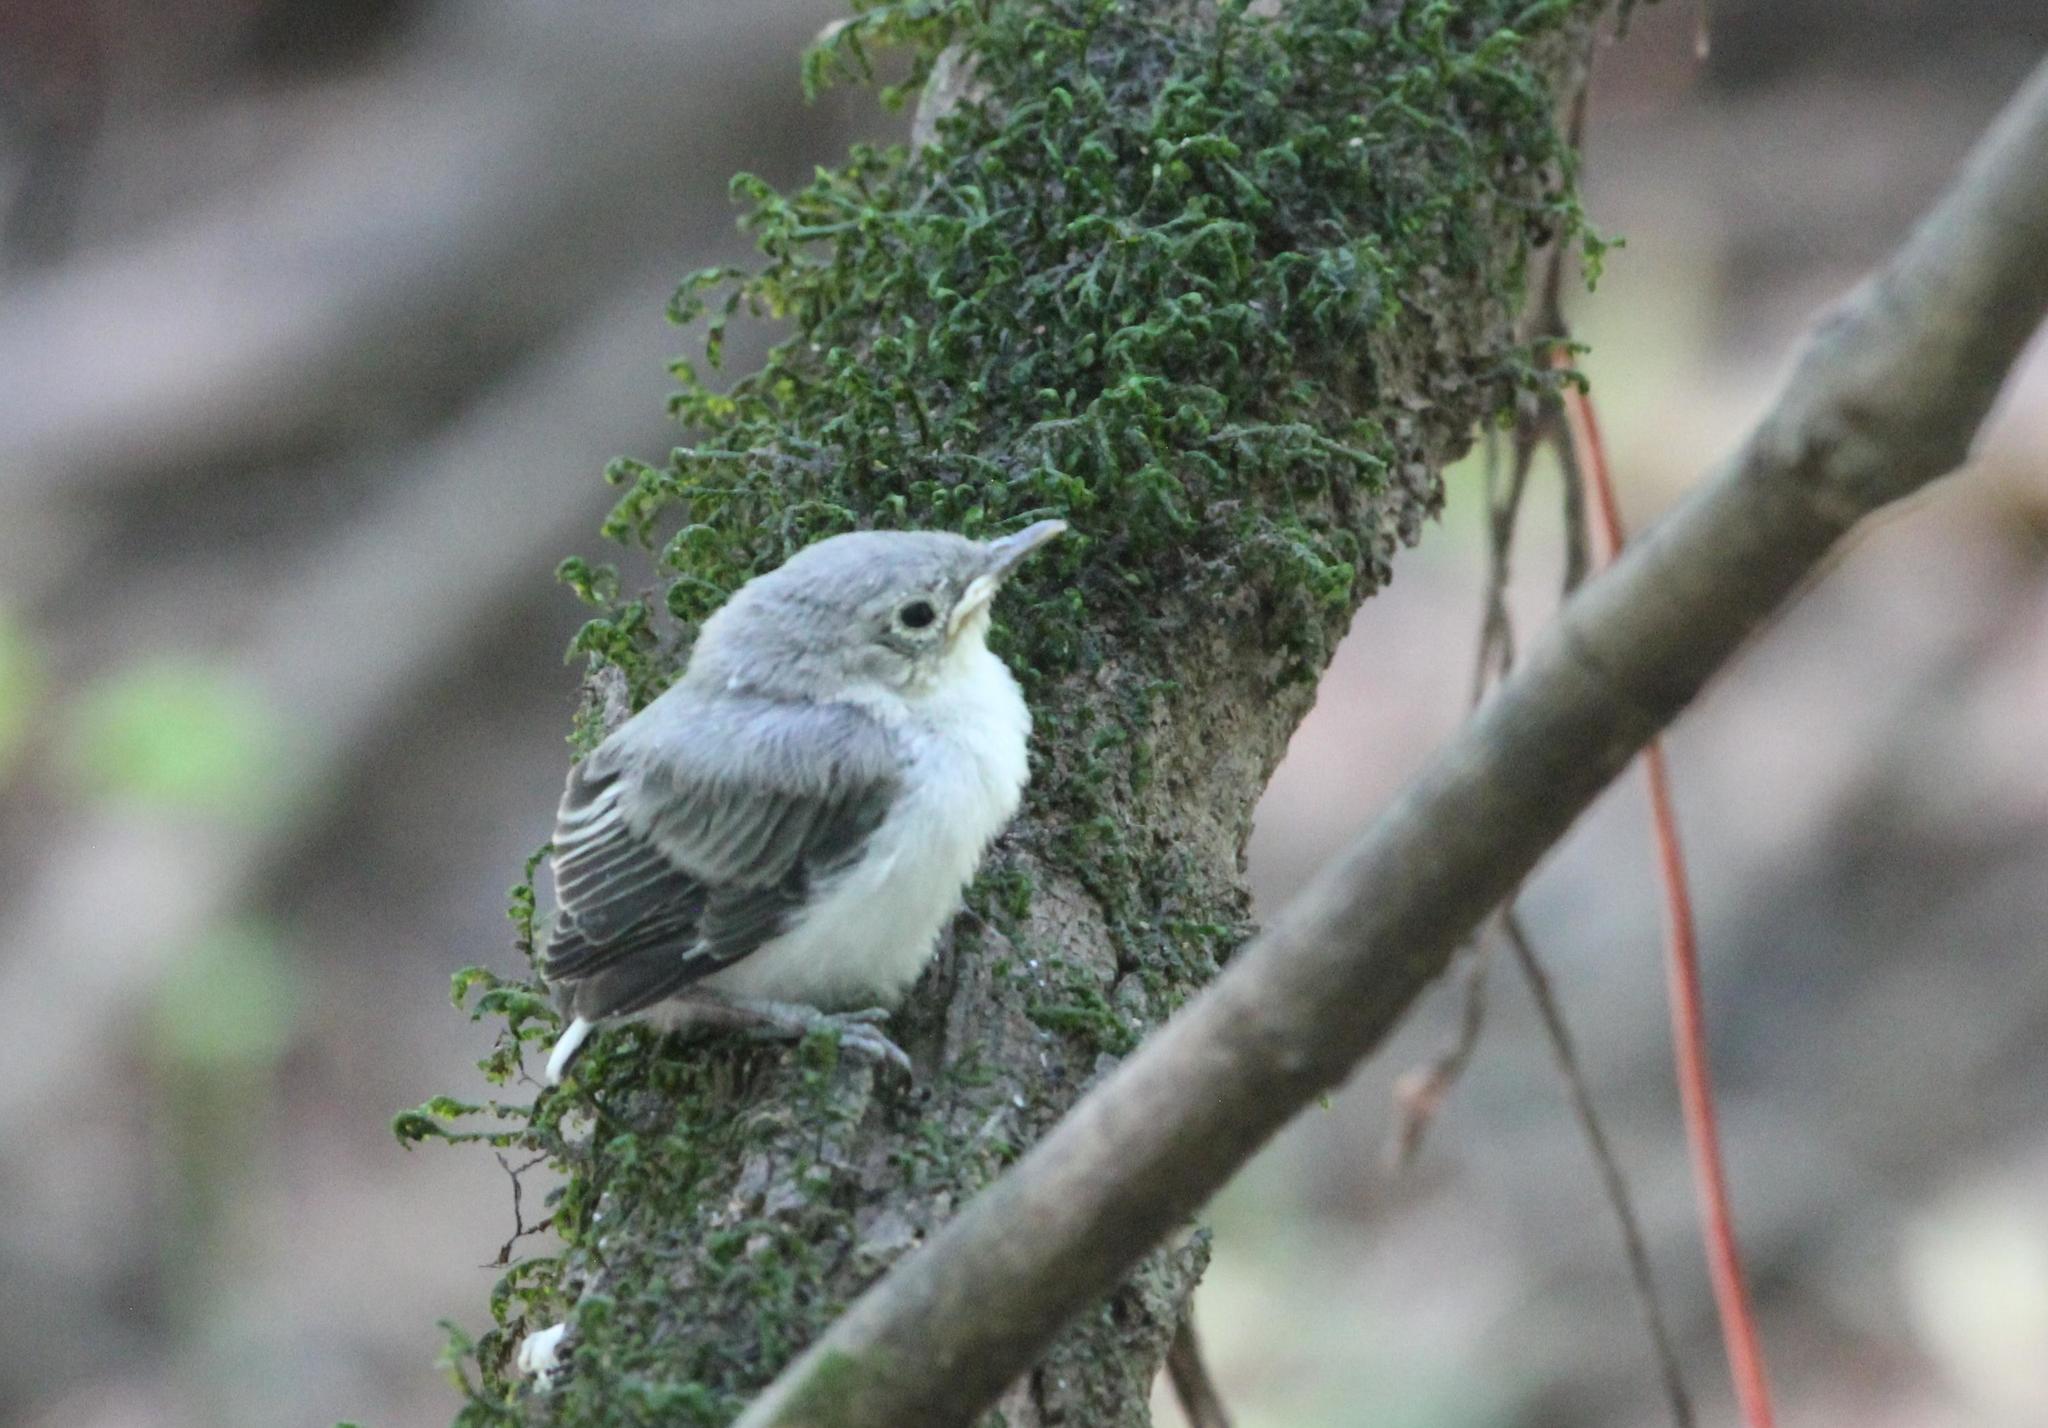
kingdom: Animalia
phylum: Chordata
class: Aves
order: Passeriformes
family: Polioptilidae
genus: Polioptila
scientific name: Polioptila caerulea
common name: Blue-gray gnatcatcher
